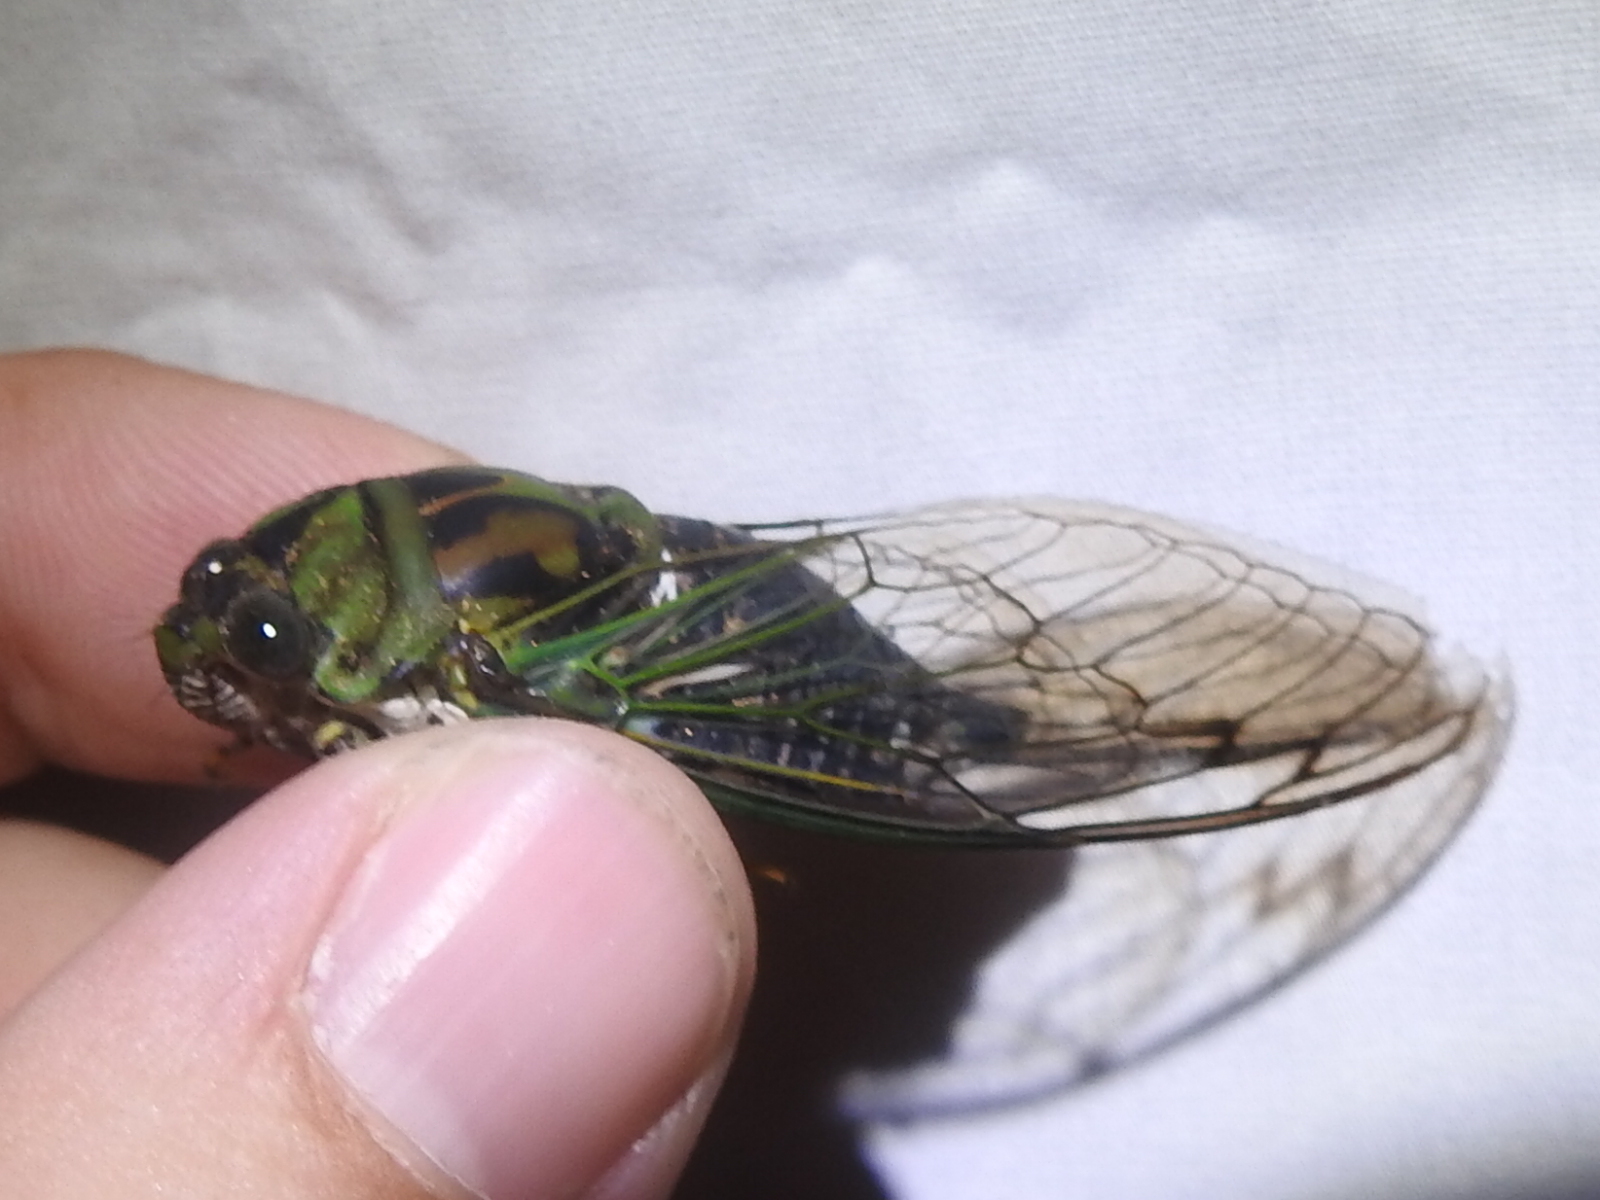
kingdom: Animalia
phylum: Arthropoda
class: Insecta
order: Hemiptera
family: Cicadidae
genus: Neotibicen
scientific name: Neotibicen robinsonianus
